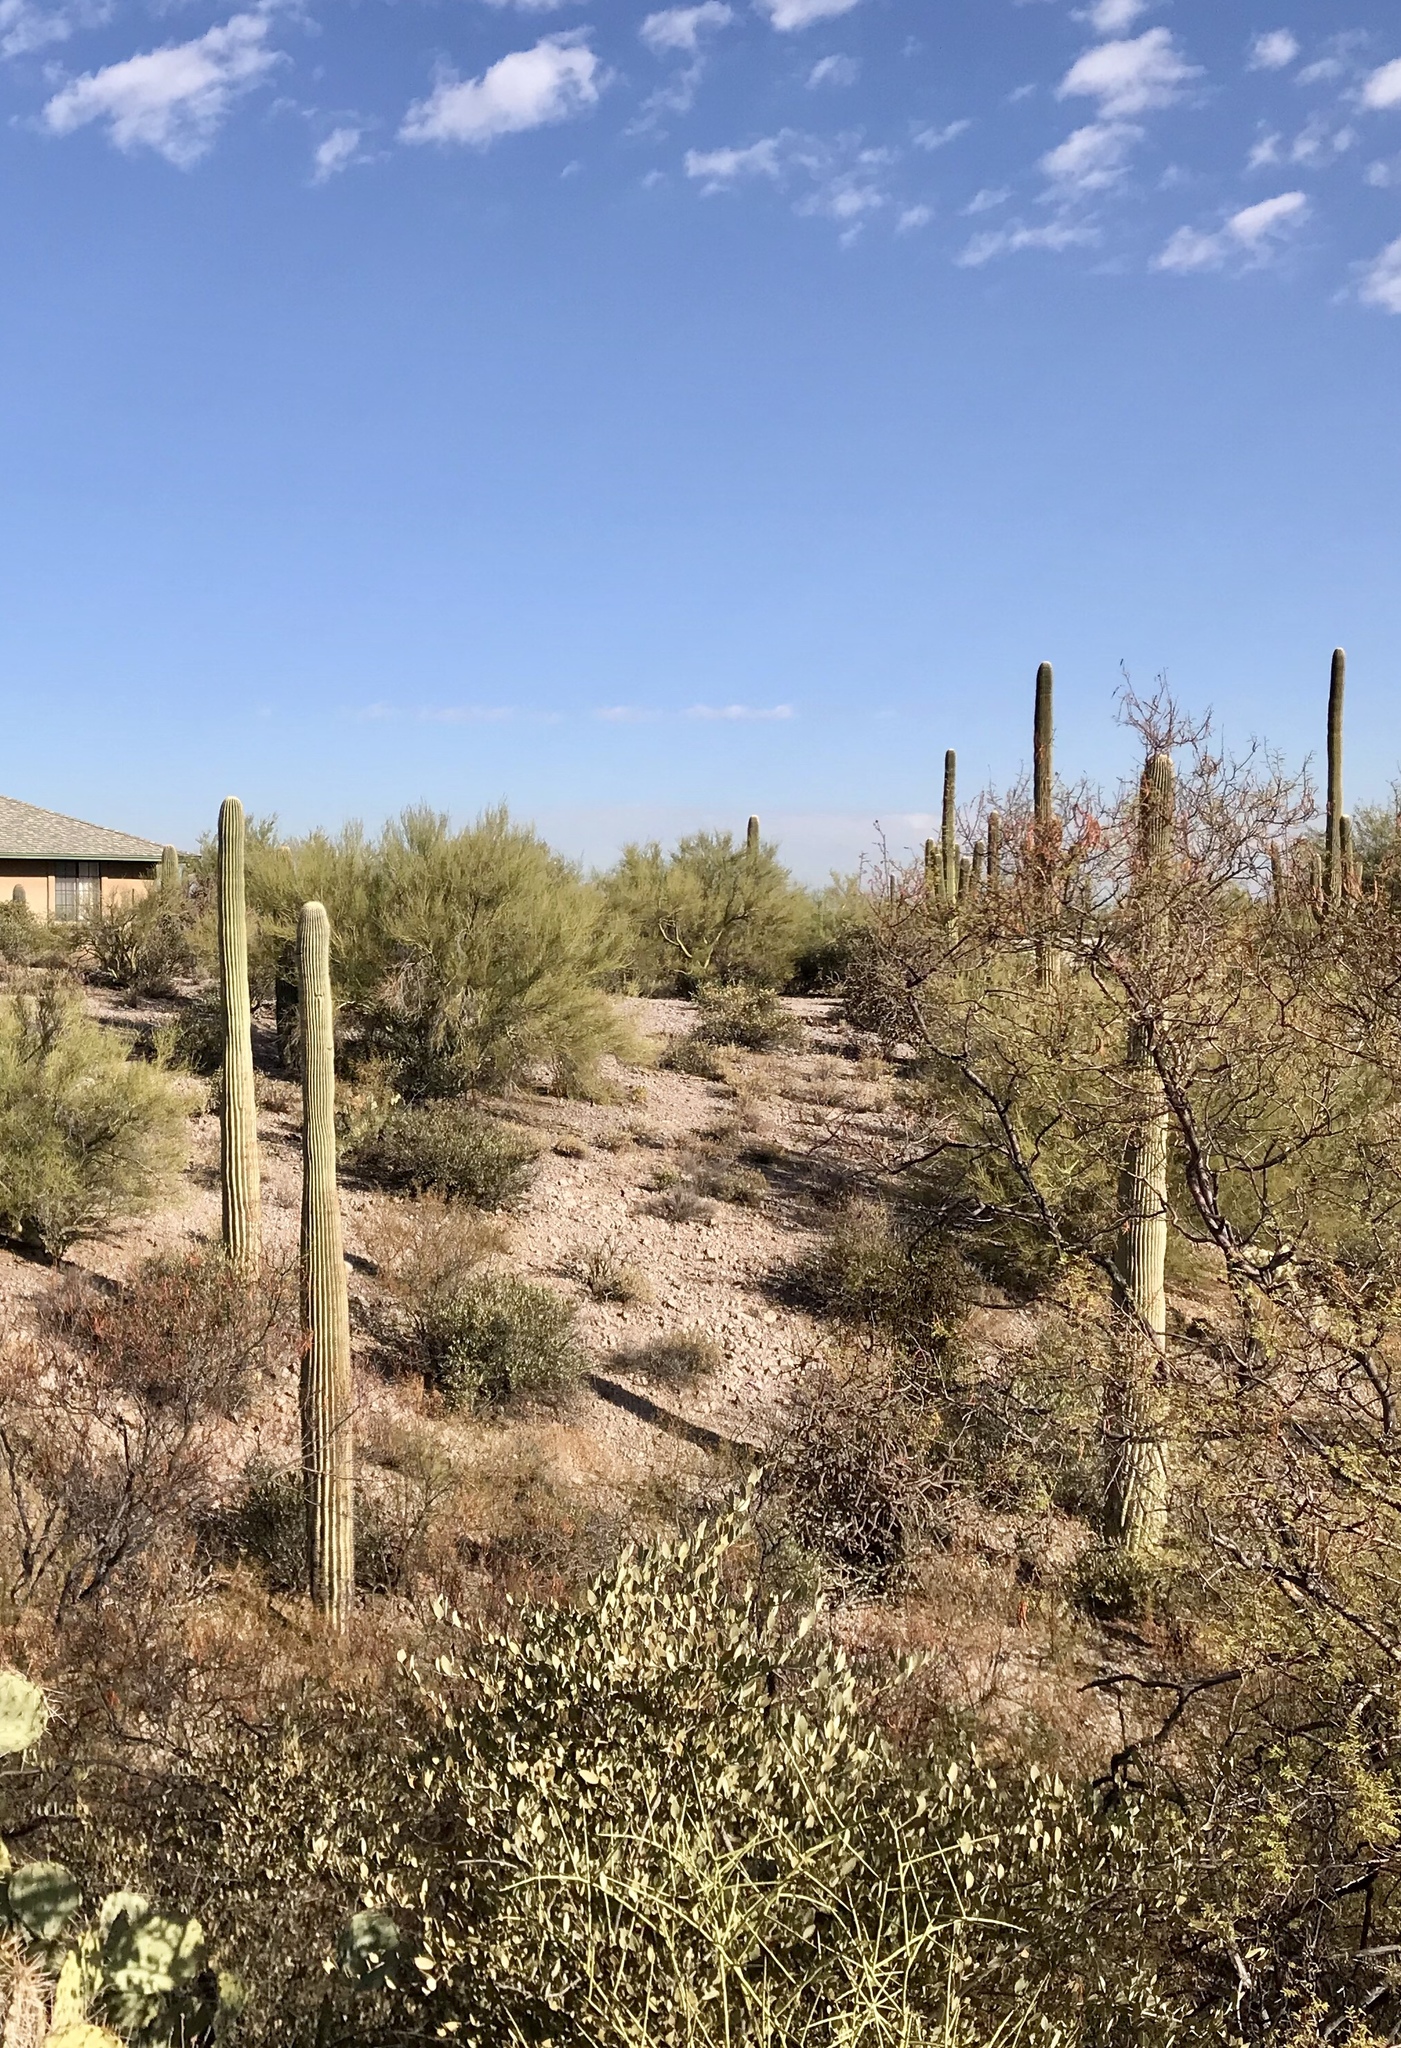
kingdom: Plantae
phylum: Tracheophyta
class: Magnoliopsida
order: Caryophyllales
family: Cactaceae
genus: Carnegiea
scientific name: Carnegiea gigantea
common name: Saguaro
